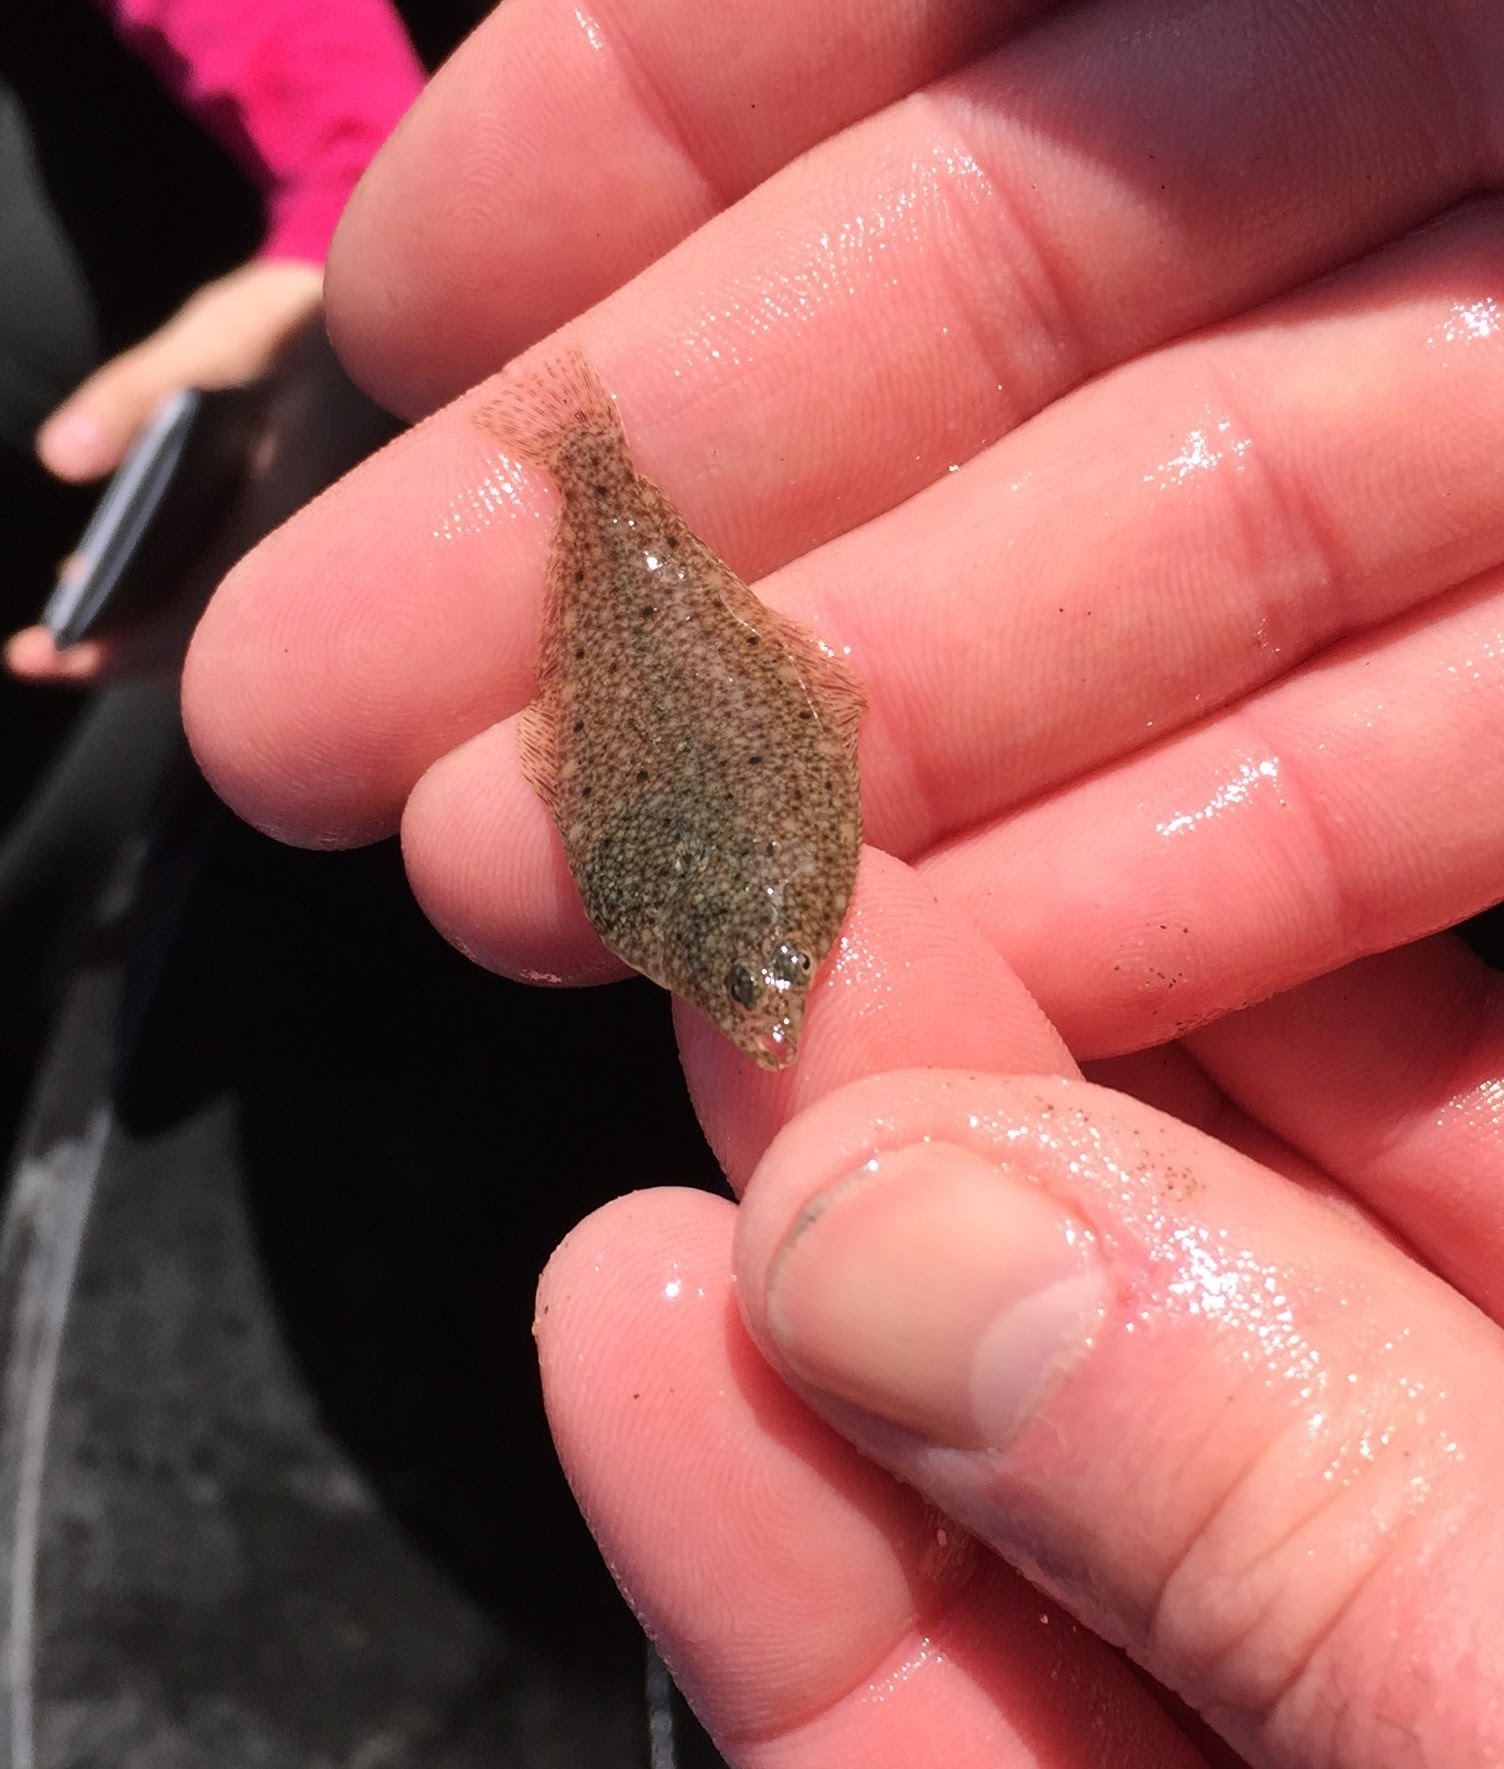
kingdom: Animalia
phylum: Chordata
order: Pleuronectiformes
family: Pleuronectidae
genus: Parophrys
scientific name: Parophrys vetulus
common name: English sole
